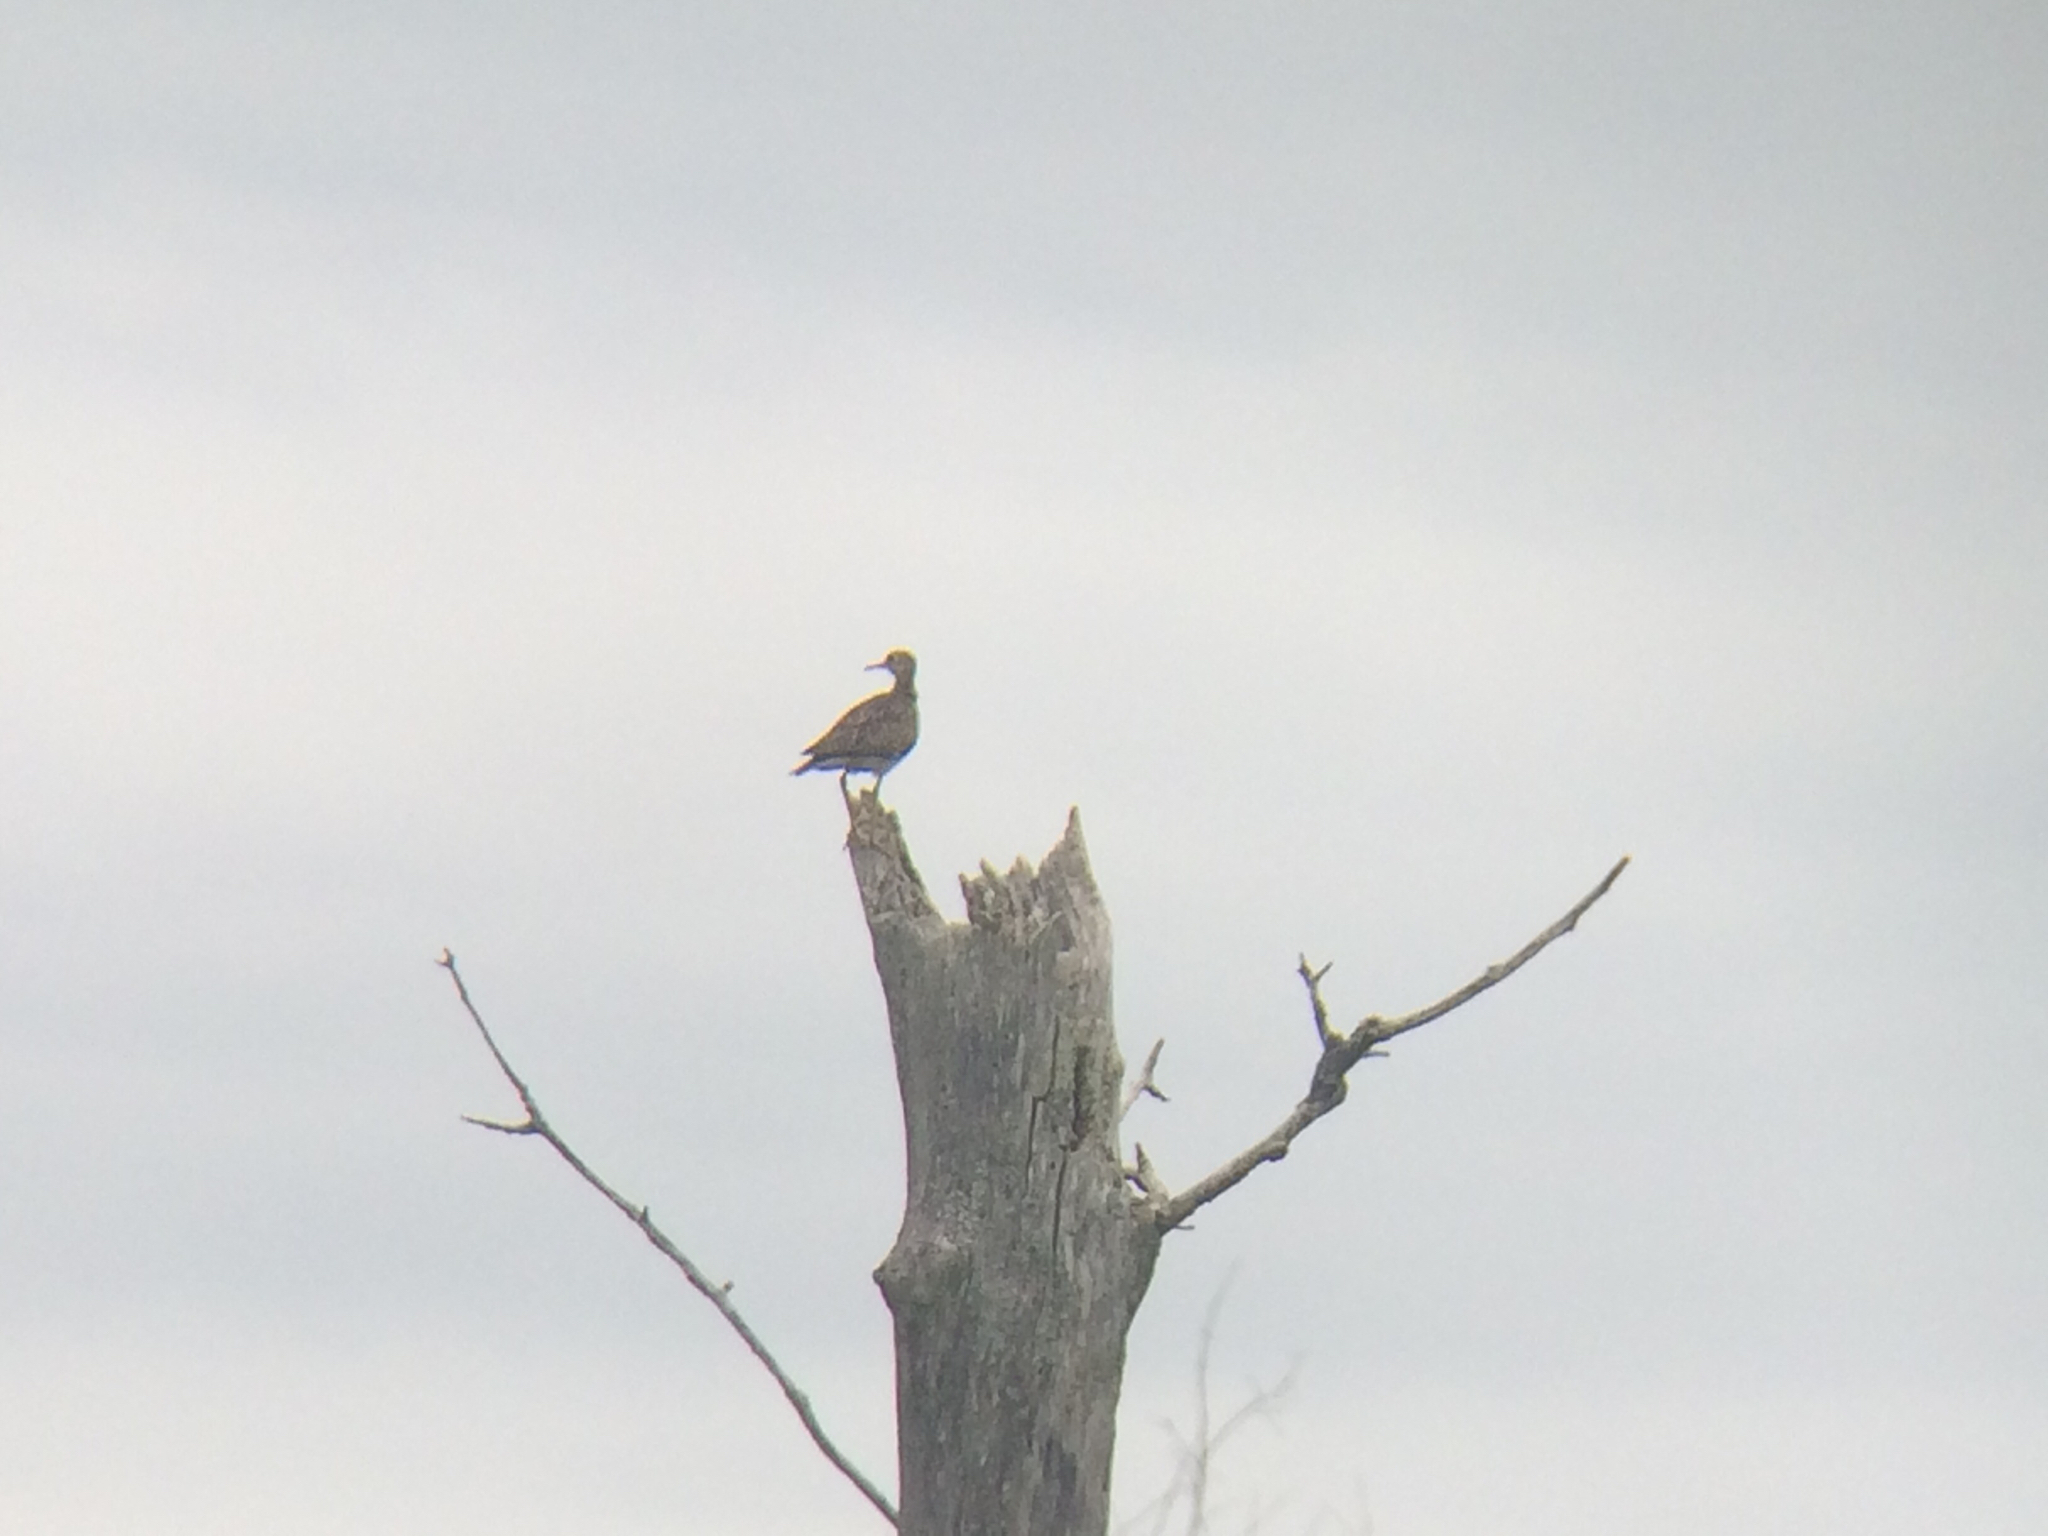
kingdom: Animalia
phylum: Chordata
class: Aves
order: Charadriiformes
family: Scolopacidae
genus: Bartramia
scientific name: Bartramia longicauda
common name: Upland sandpiper
